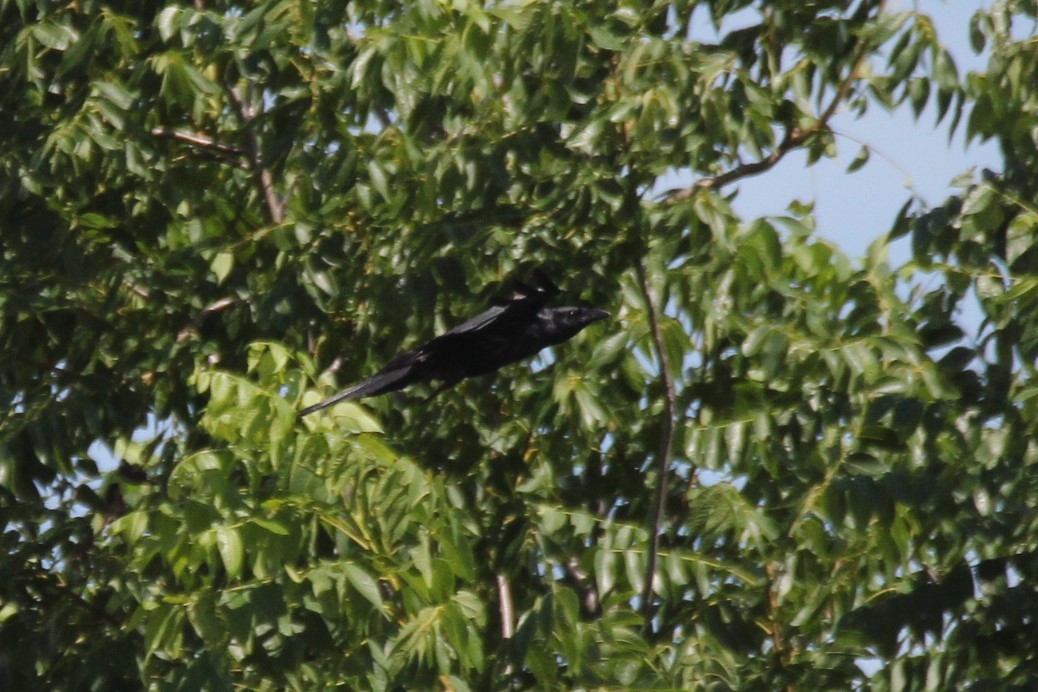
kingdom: Animalia
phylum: Chordata
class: Aves
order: Passeriformes
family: Corvidae
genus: Corvus
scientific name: Corvus ossifragus
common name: Fish crow
